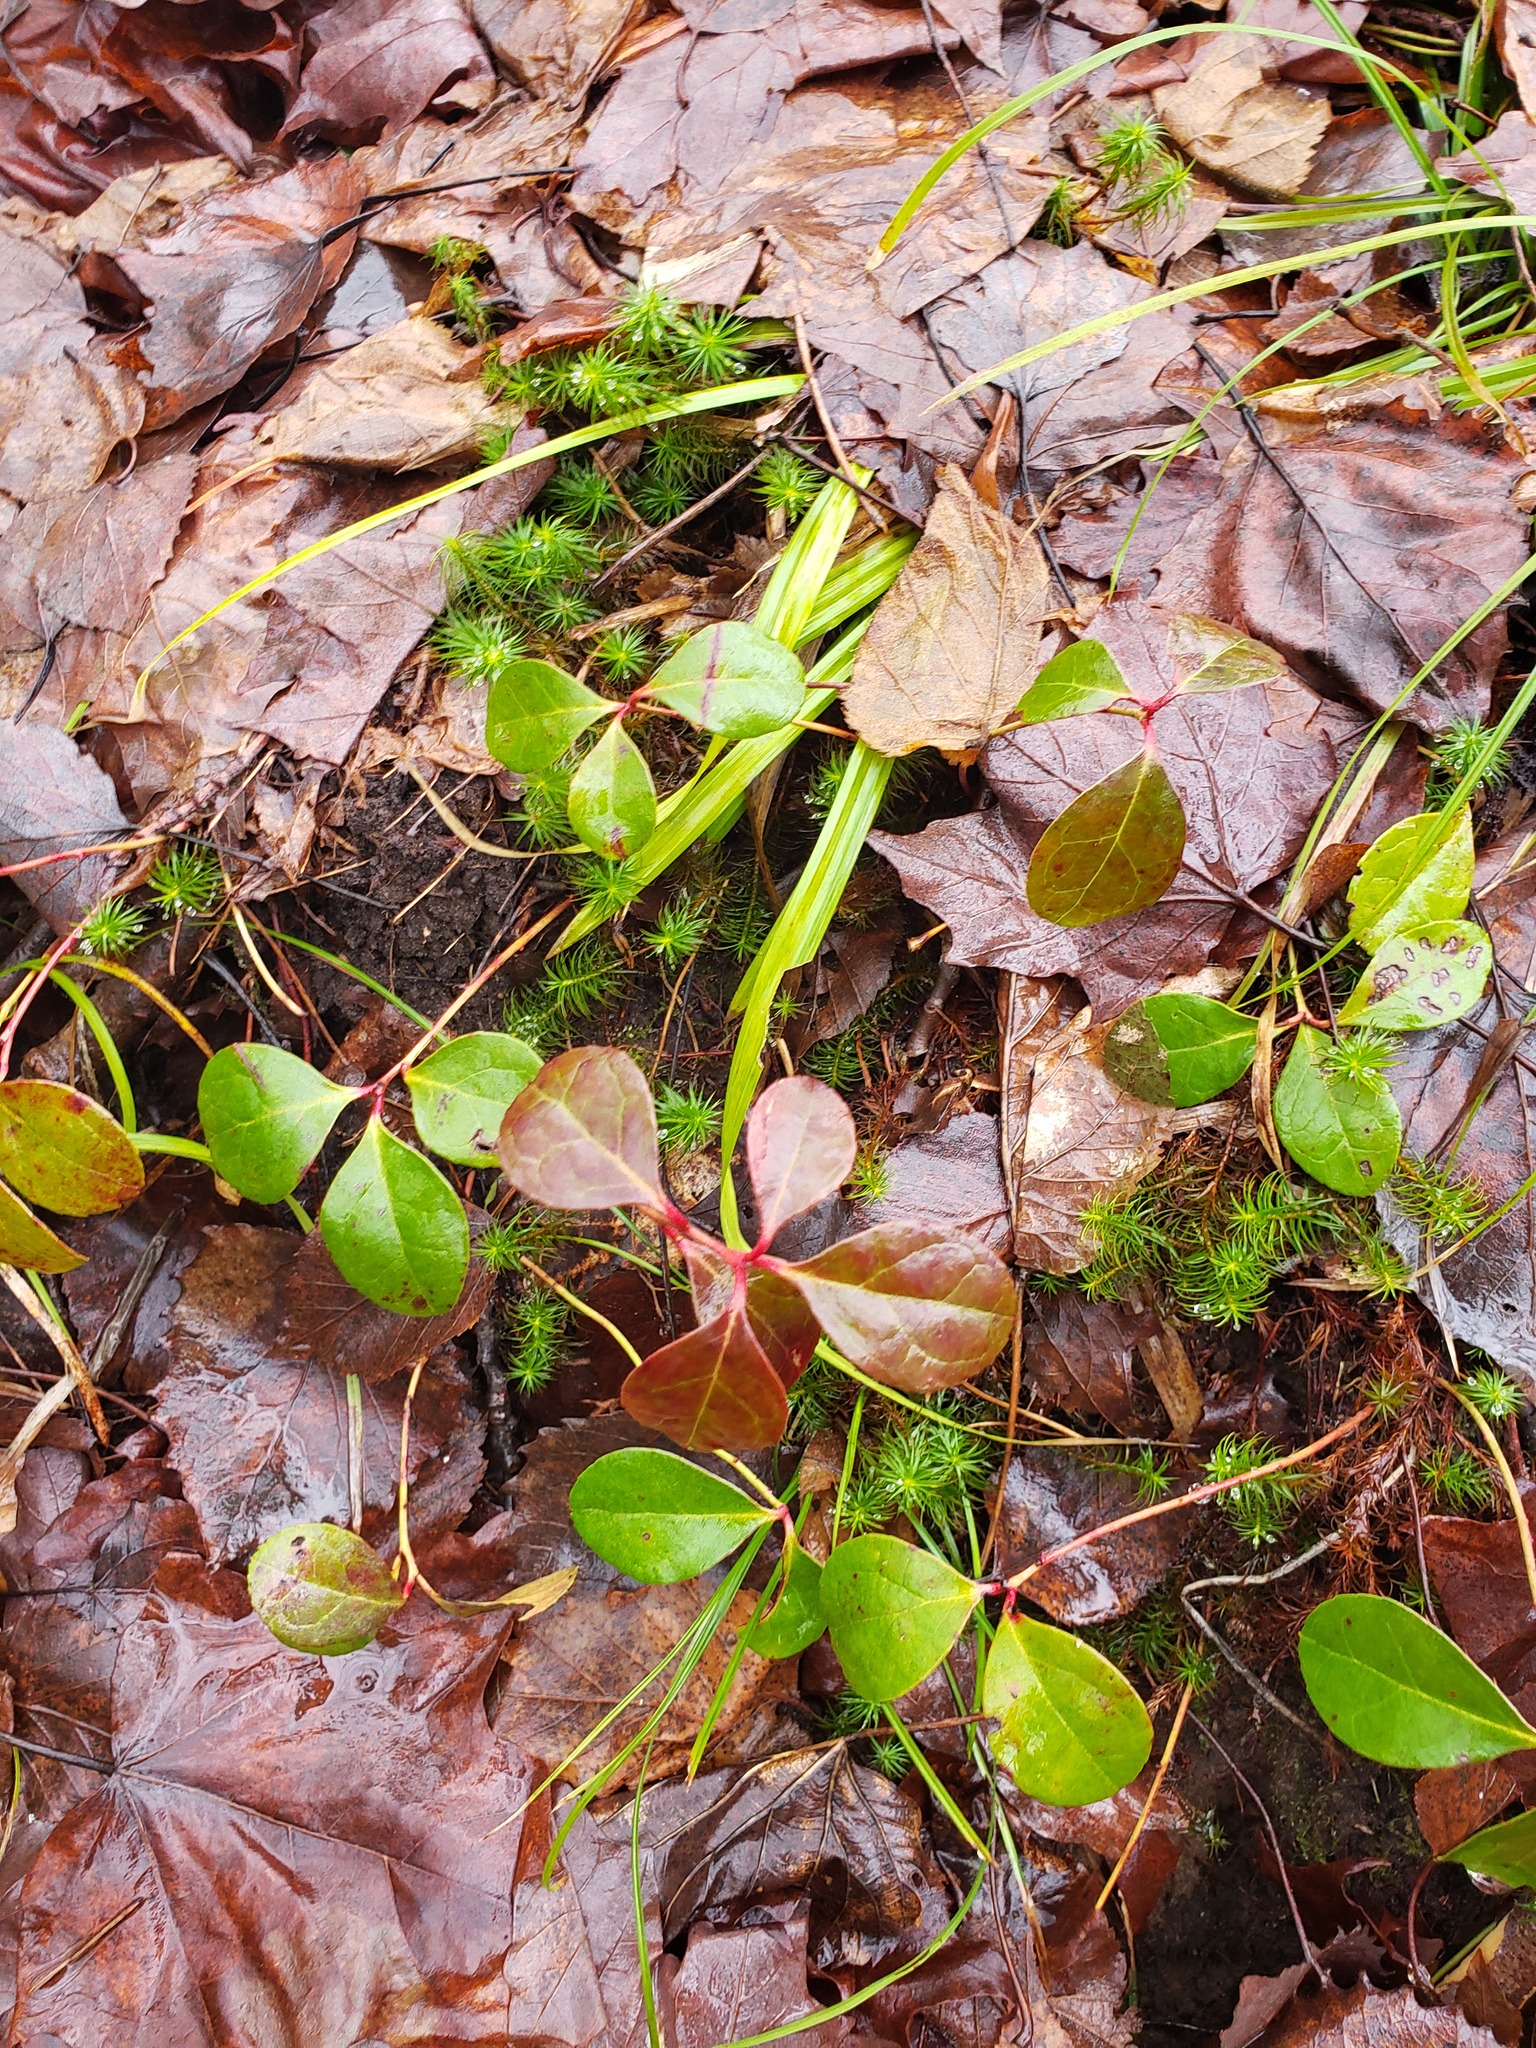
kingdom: Plantae
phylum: Tracheophyta
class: Magnoliopsida
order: Ericales
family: Ericaceae
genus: Gaultheria
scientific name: Gaultheria procumbens
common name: Checkerberry
